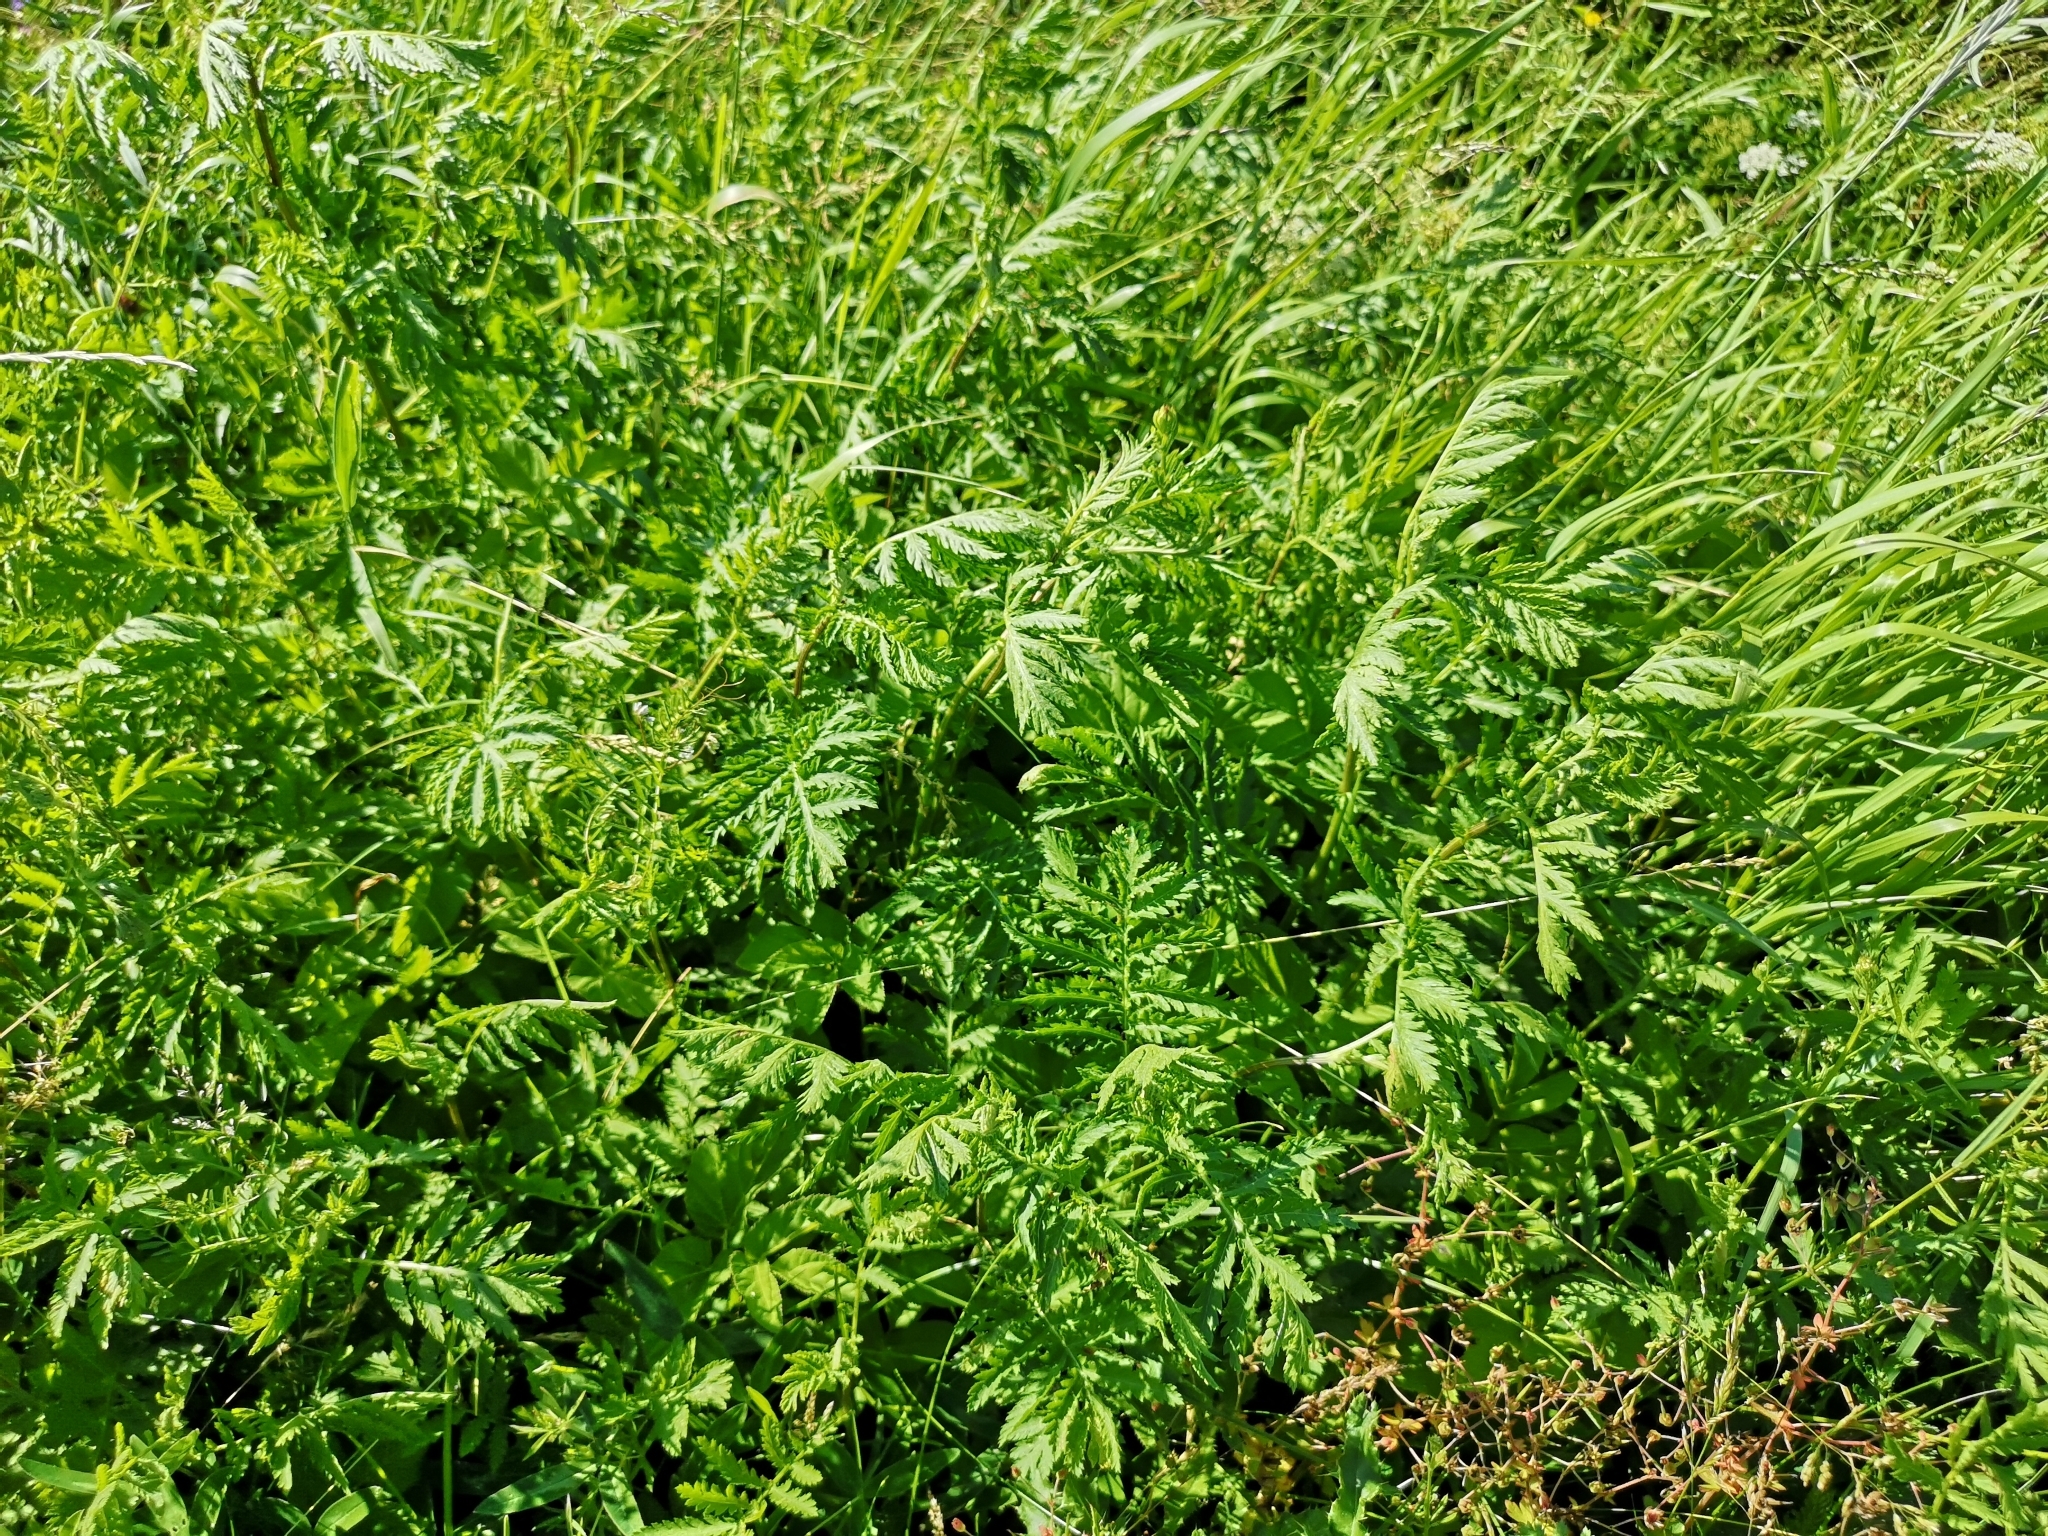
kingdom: Plantae
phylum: Tracheophyta
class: Magnoliopsida
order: Asterales
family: Asteraceae
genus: Tanacetum
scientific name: Tanacetum vulgare
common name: Common tansy
